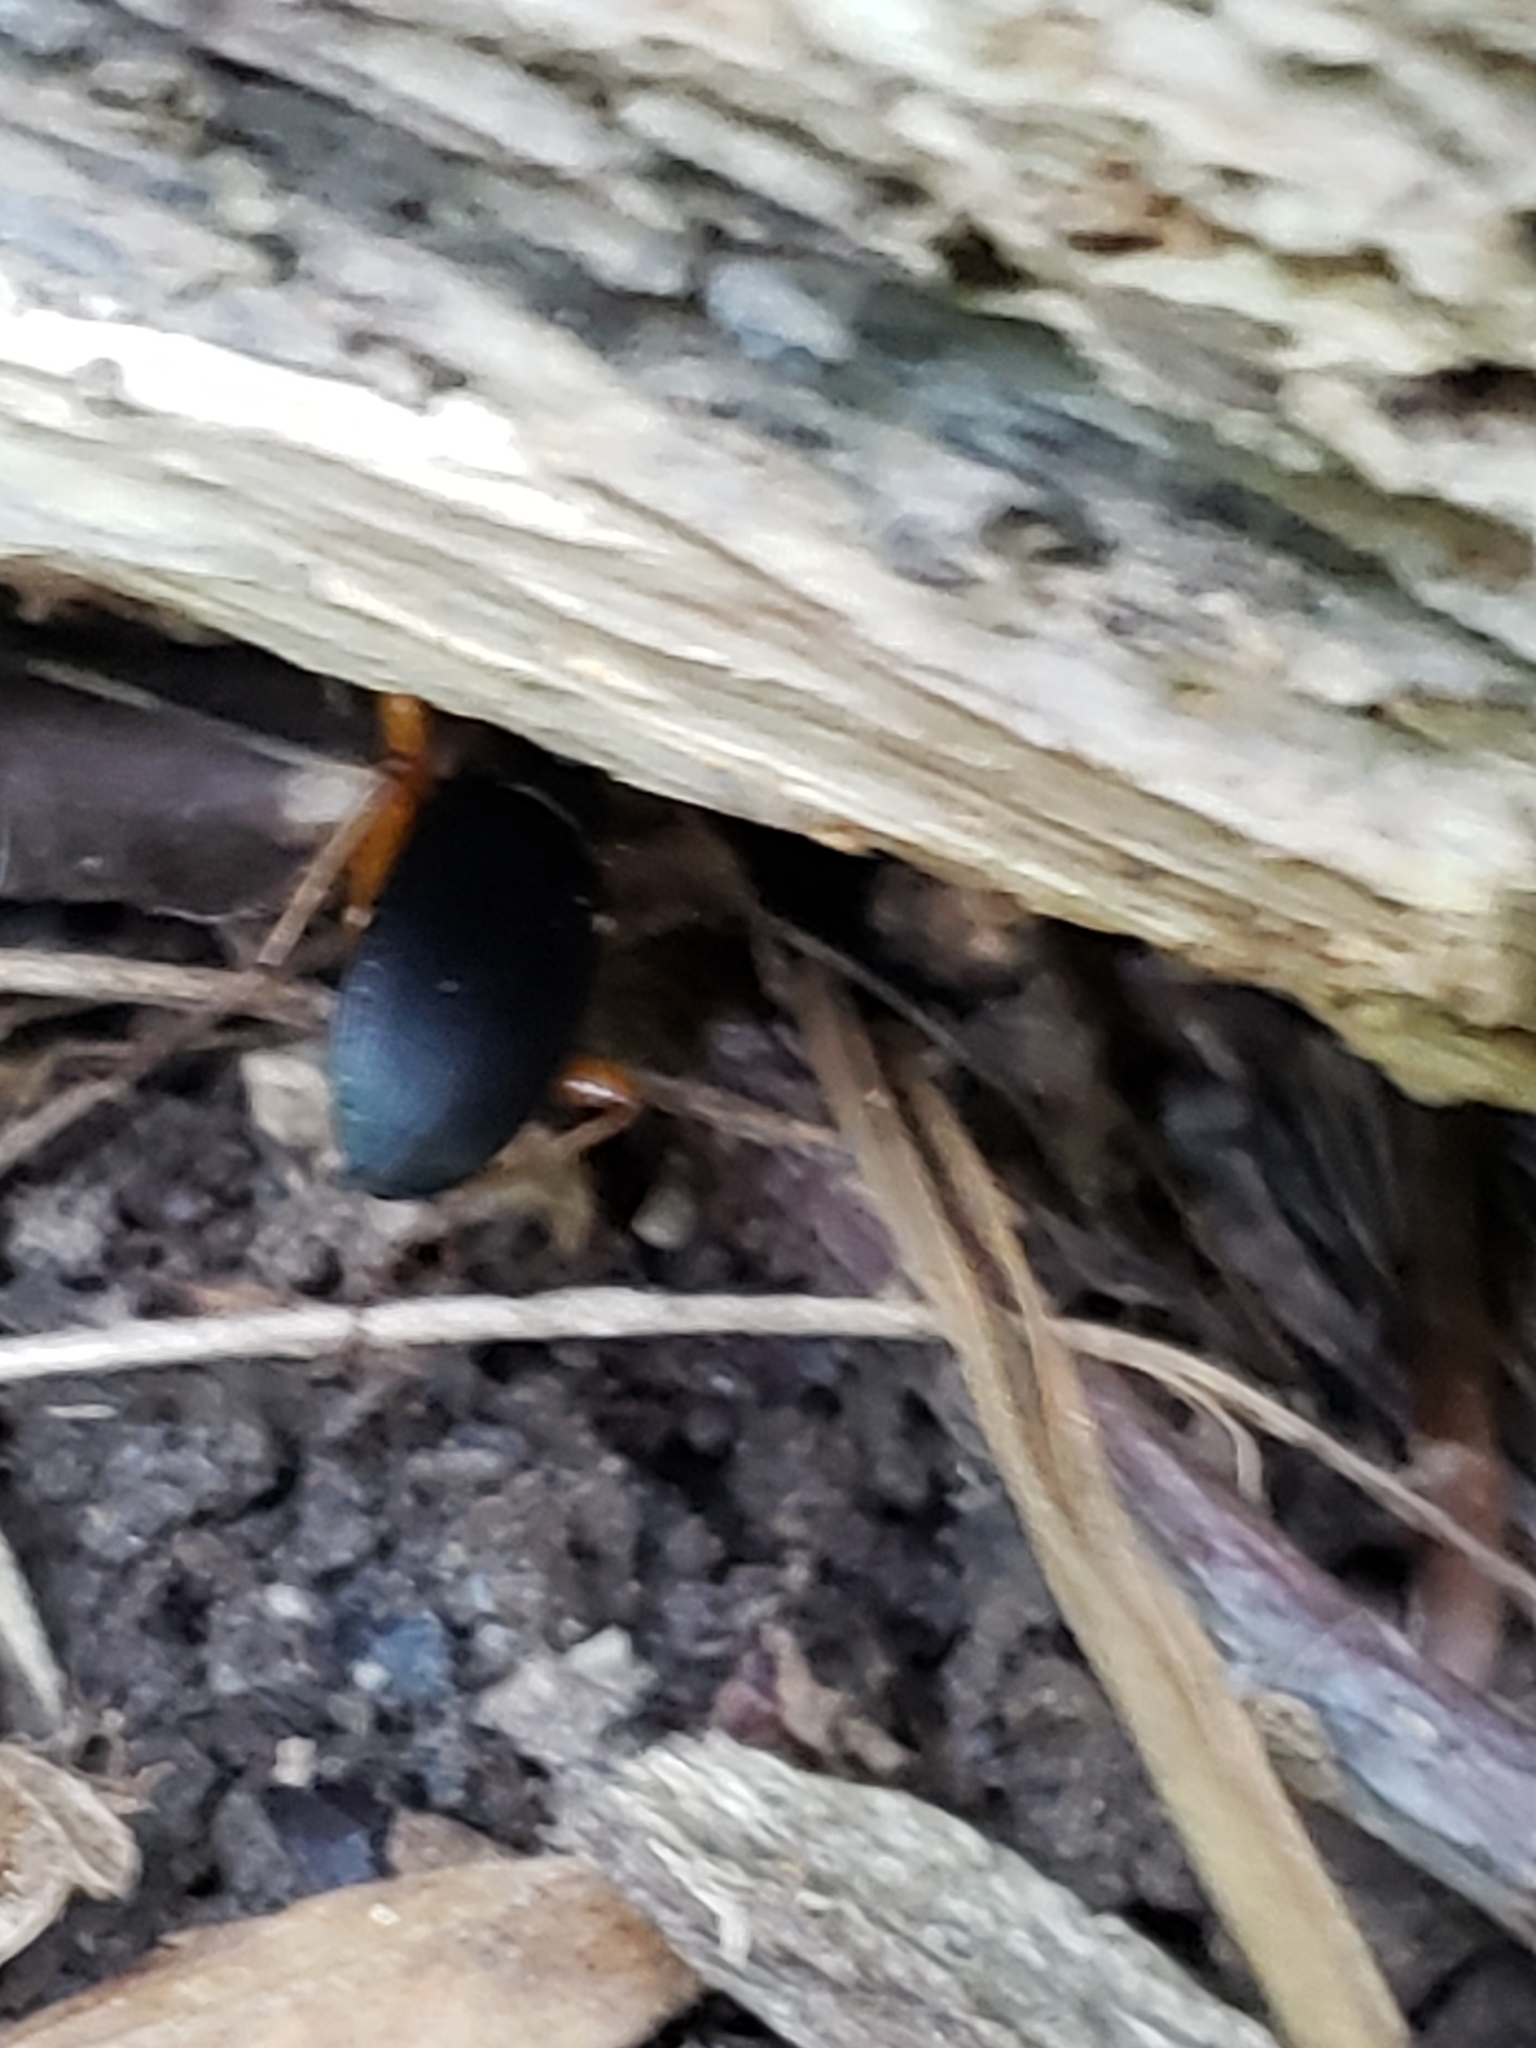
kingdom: Animalia
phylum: Arthropoda
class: Insecta
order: Coleoptera
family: Carabidae
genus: Chlaenius
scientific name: Chlaenius aestivus
